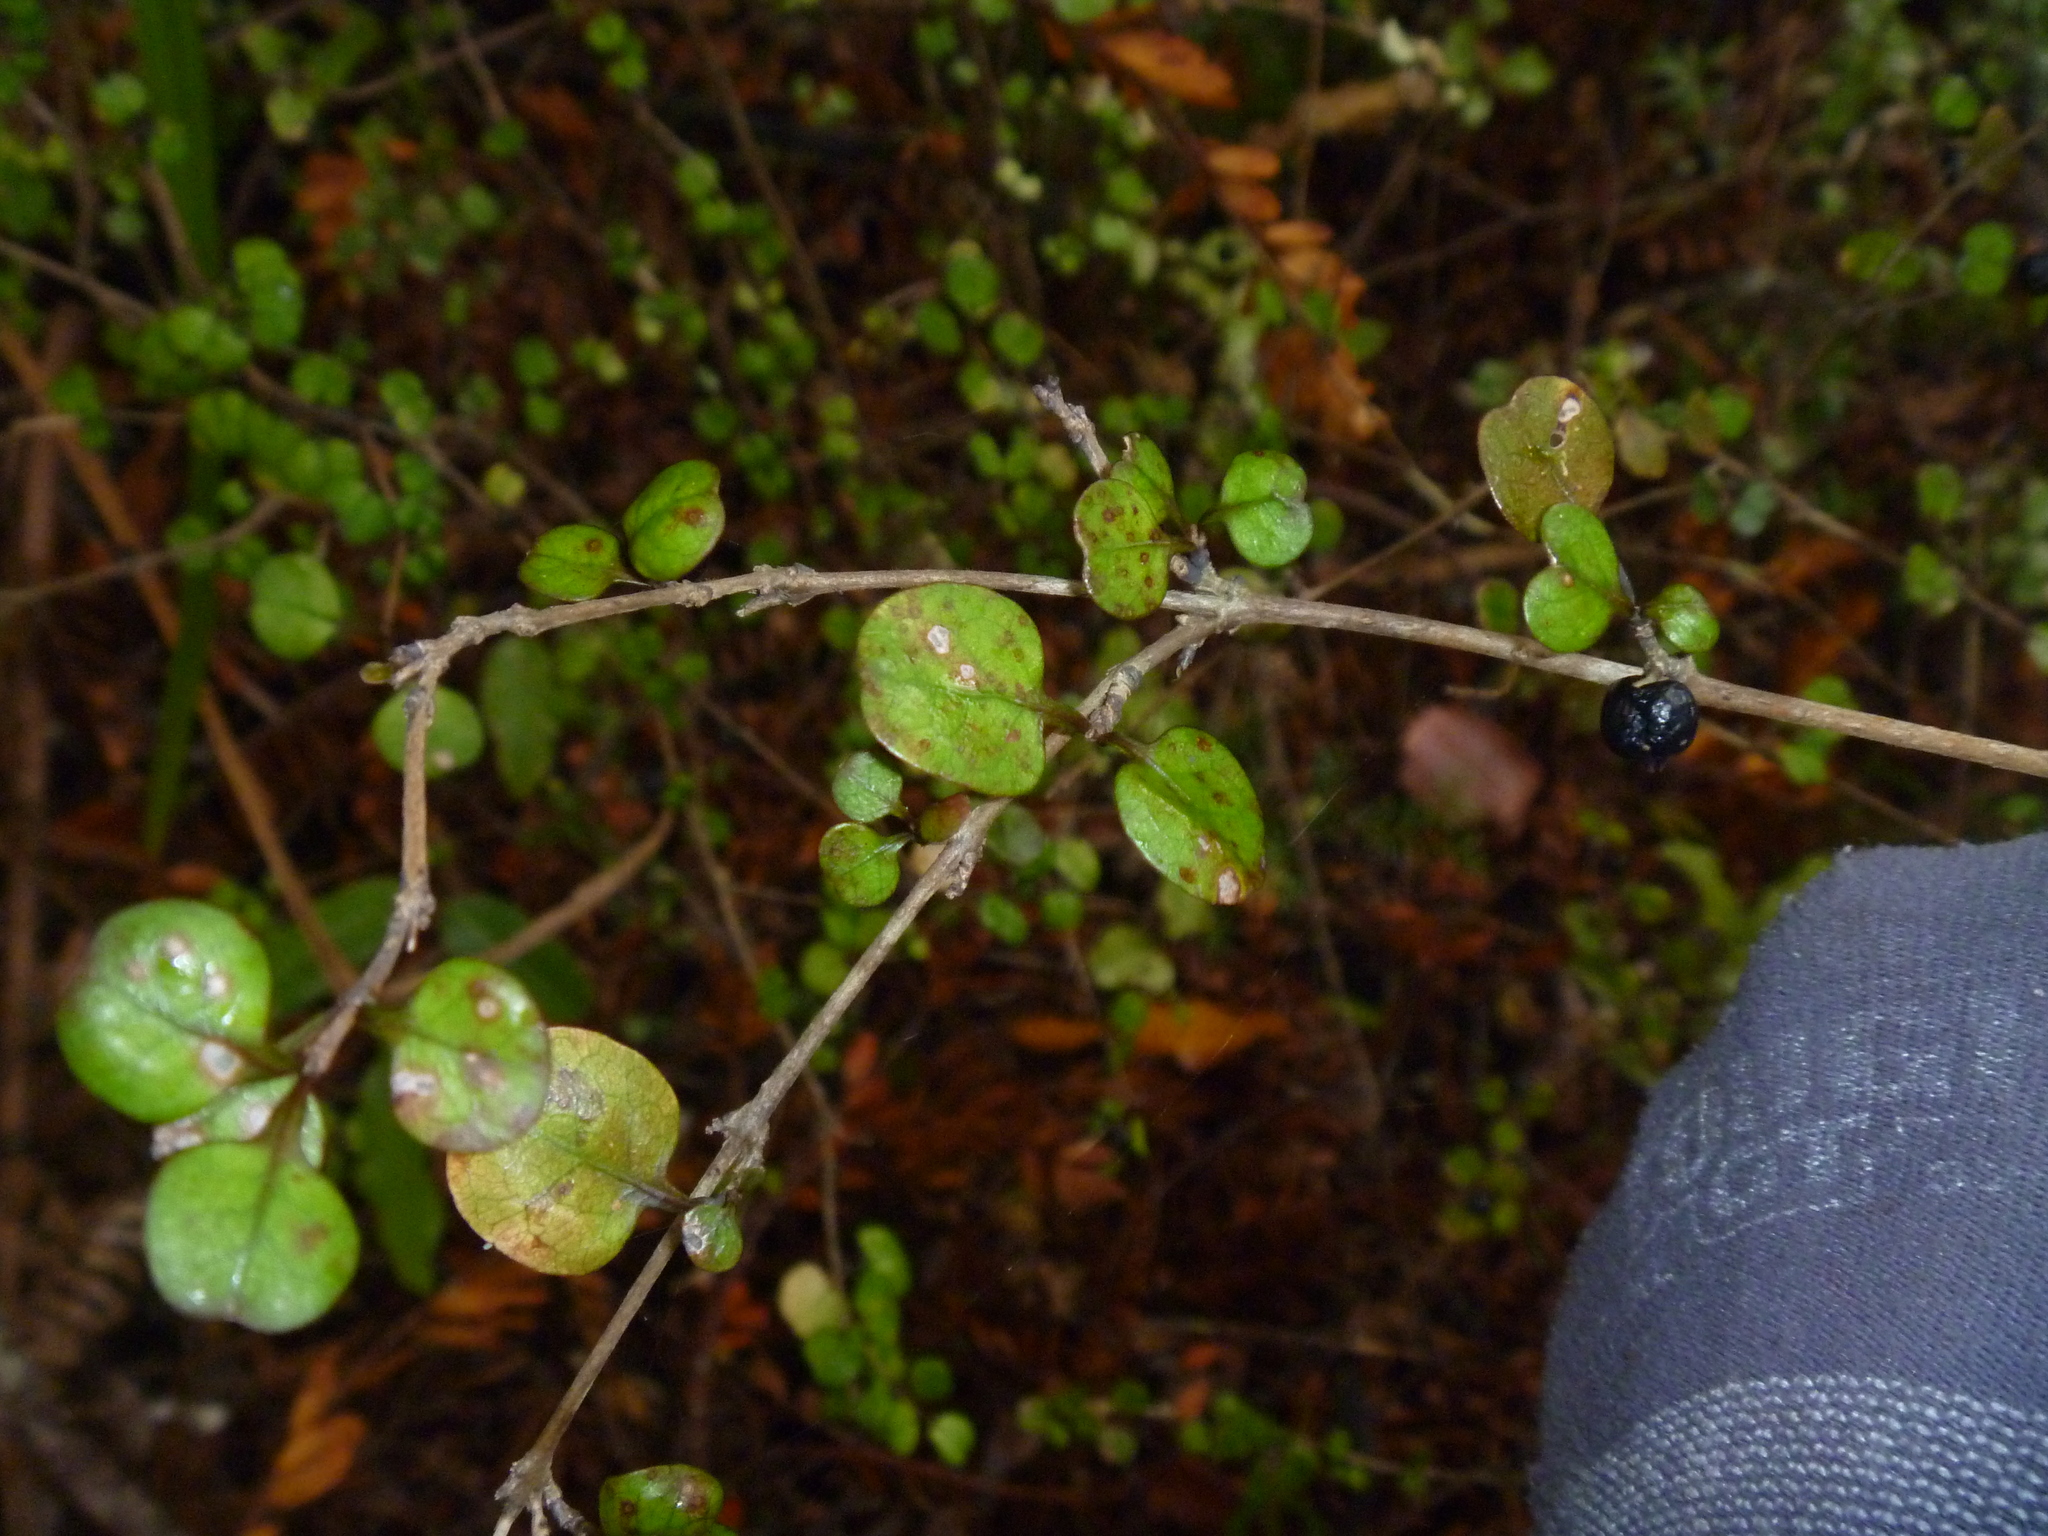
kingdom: Plantae
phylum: Tracheophyta
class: Magnoliopsida
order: Gentianales
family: Rubiaceae
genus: Coprosma
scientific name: Coprosma spathulata
